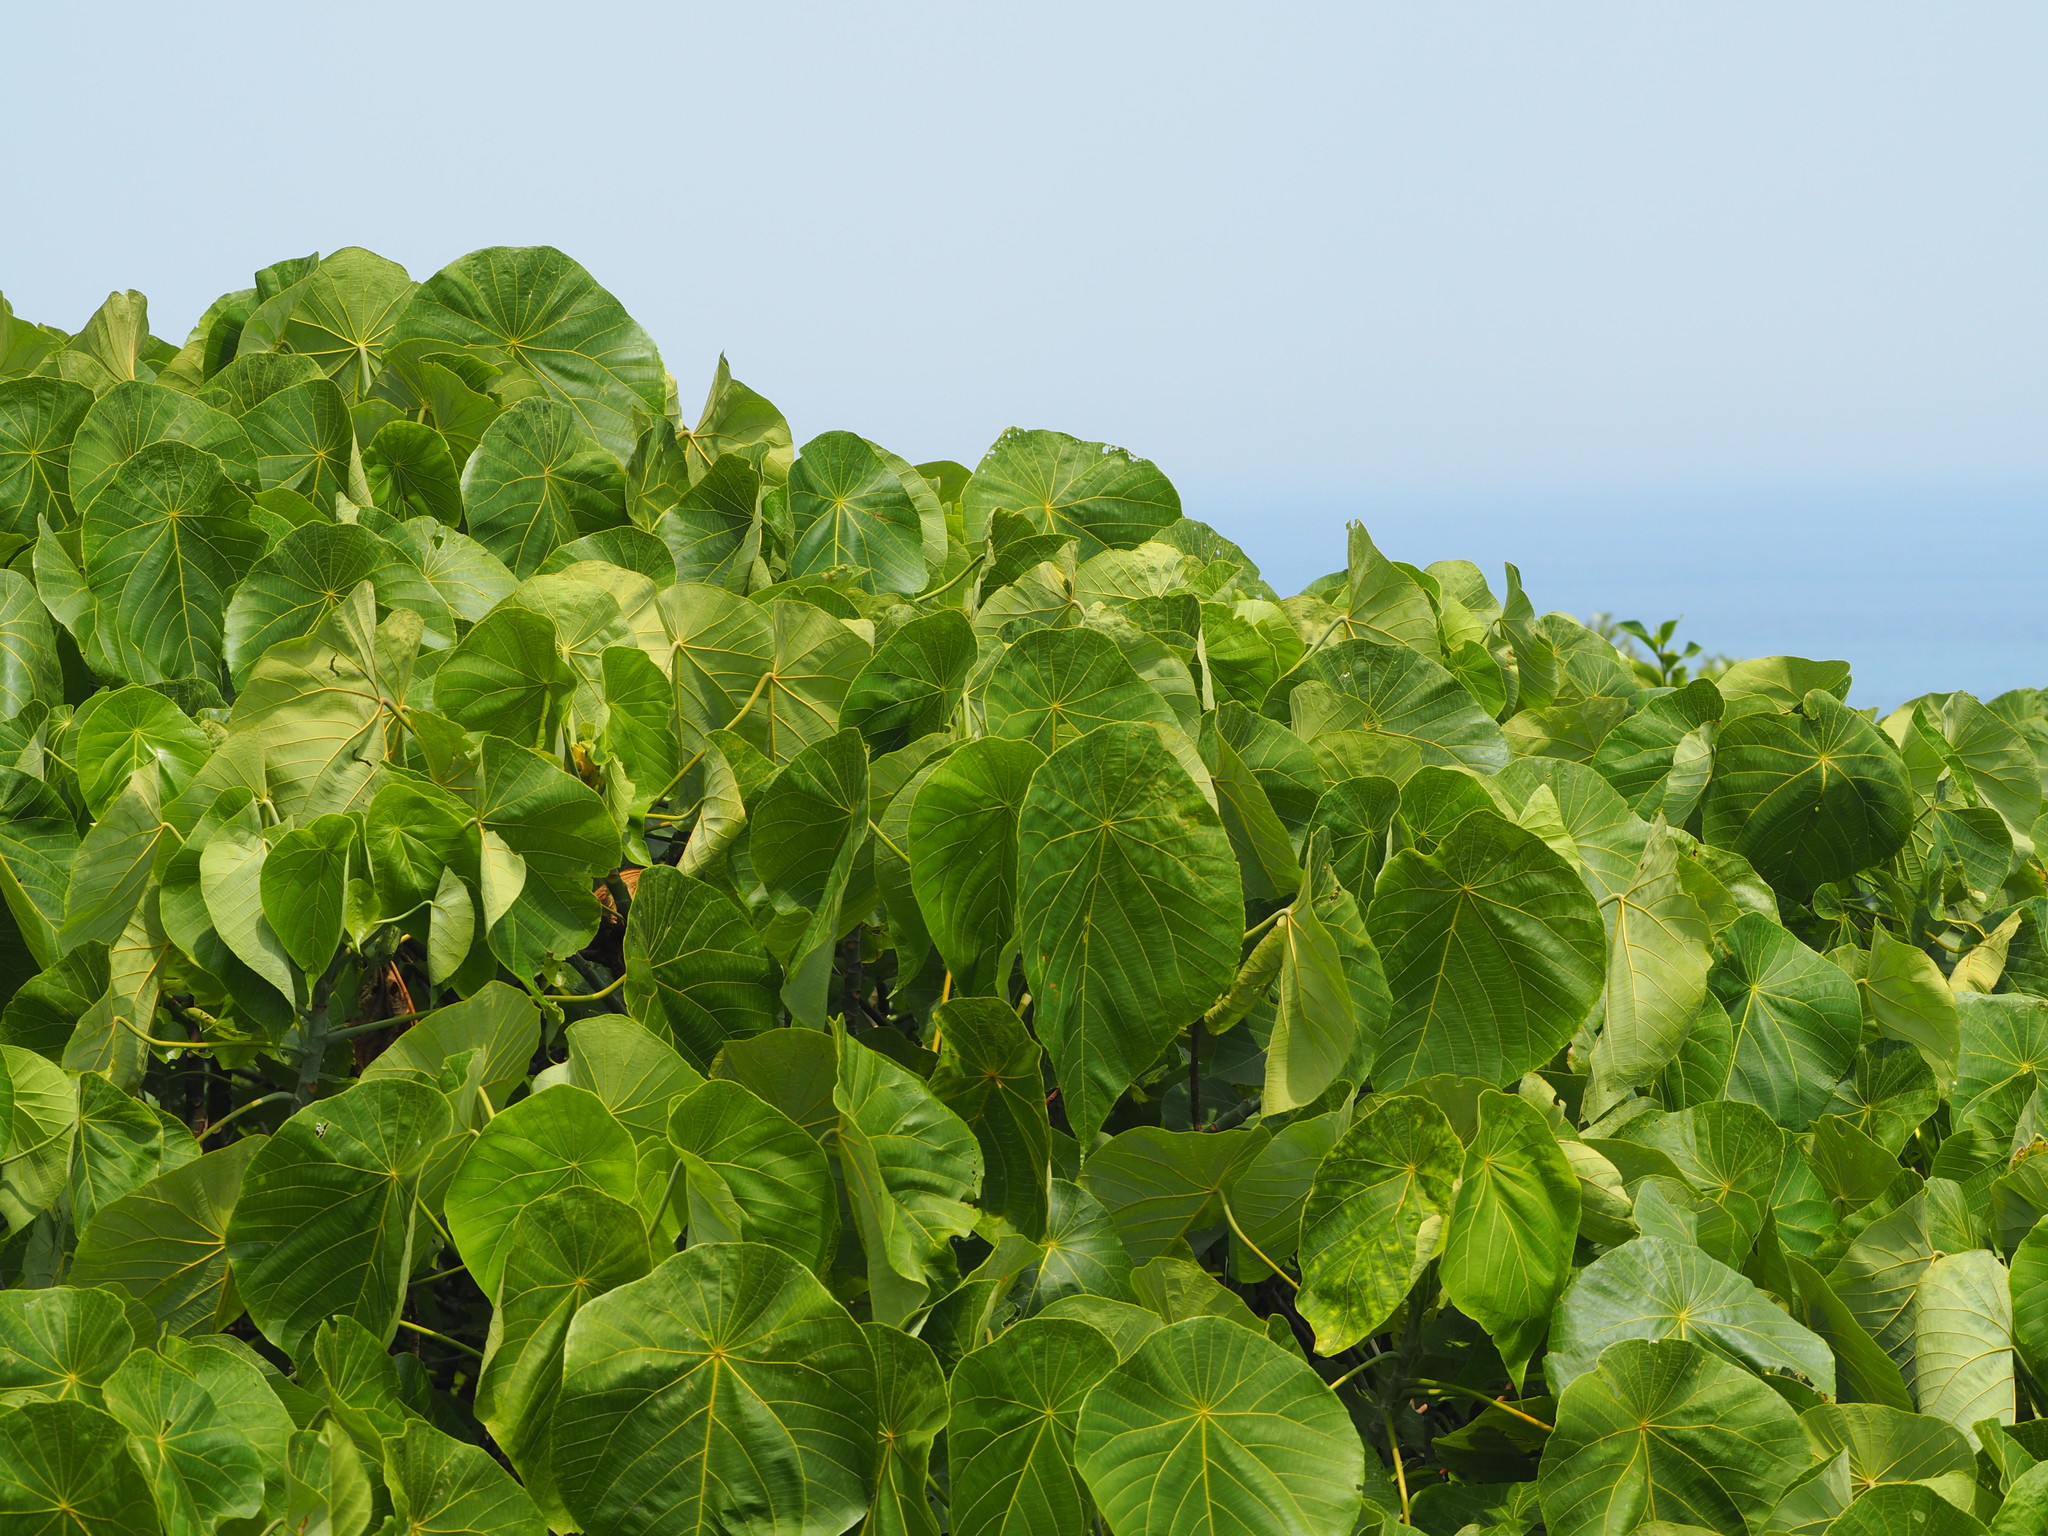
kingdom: Plantae
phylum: Tracheophyta
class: Magnoliopsida
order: Malpighiales
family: Euphorbiaceae
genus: Macaranga
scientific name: Macaranga tanarius
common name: Parasol leaf tree
